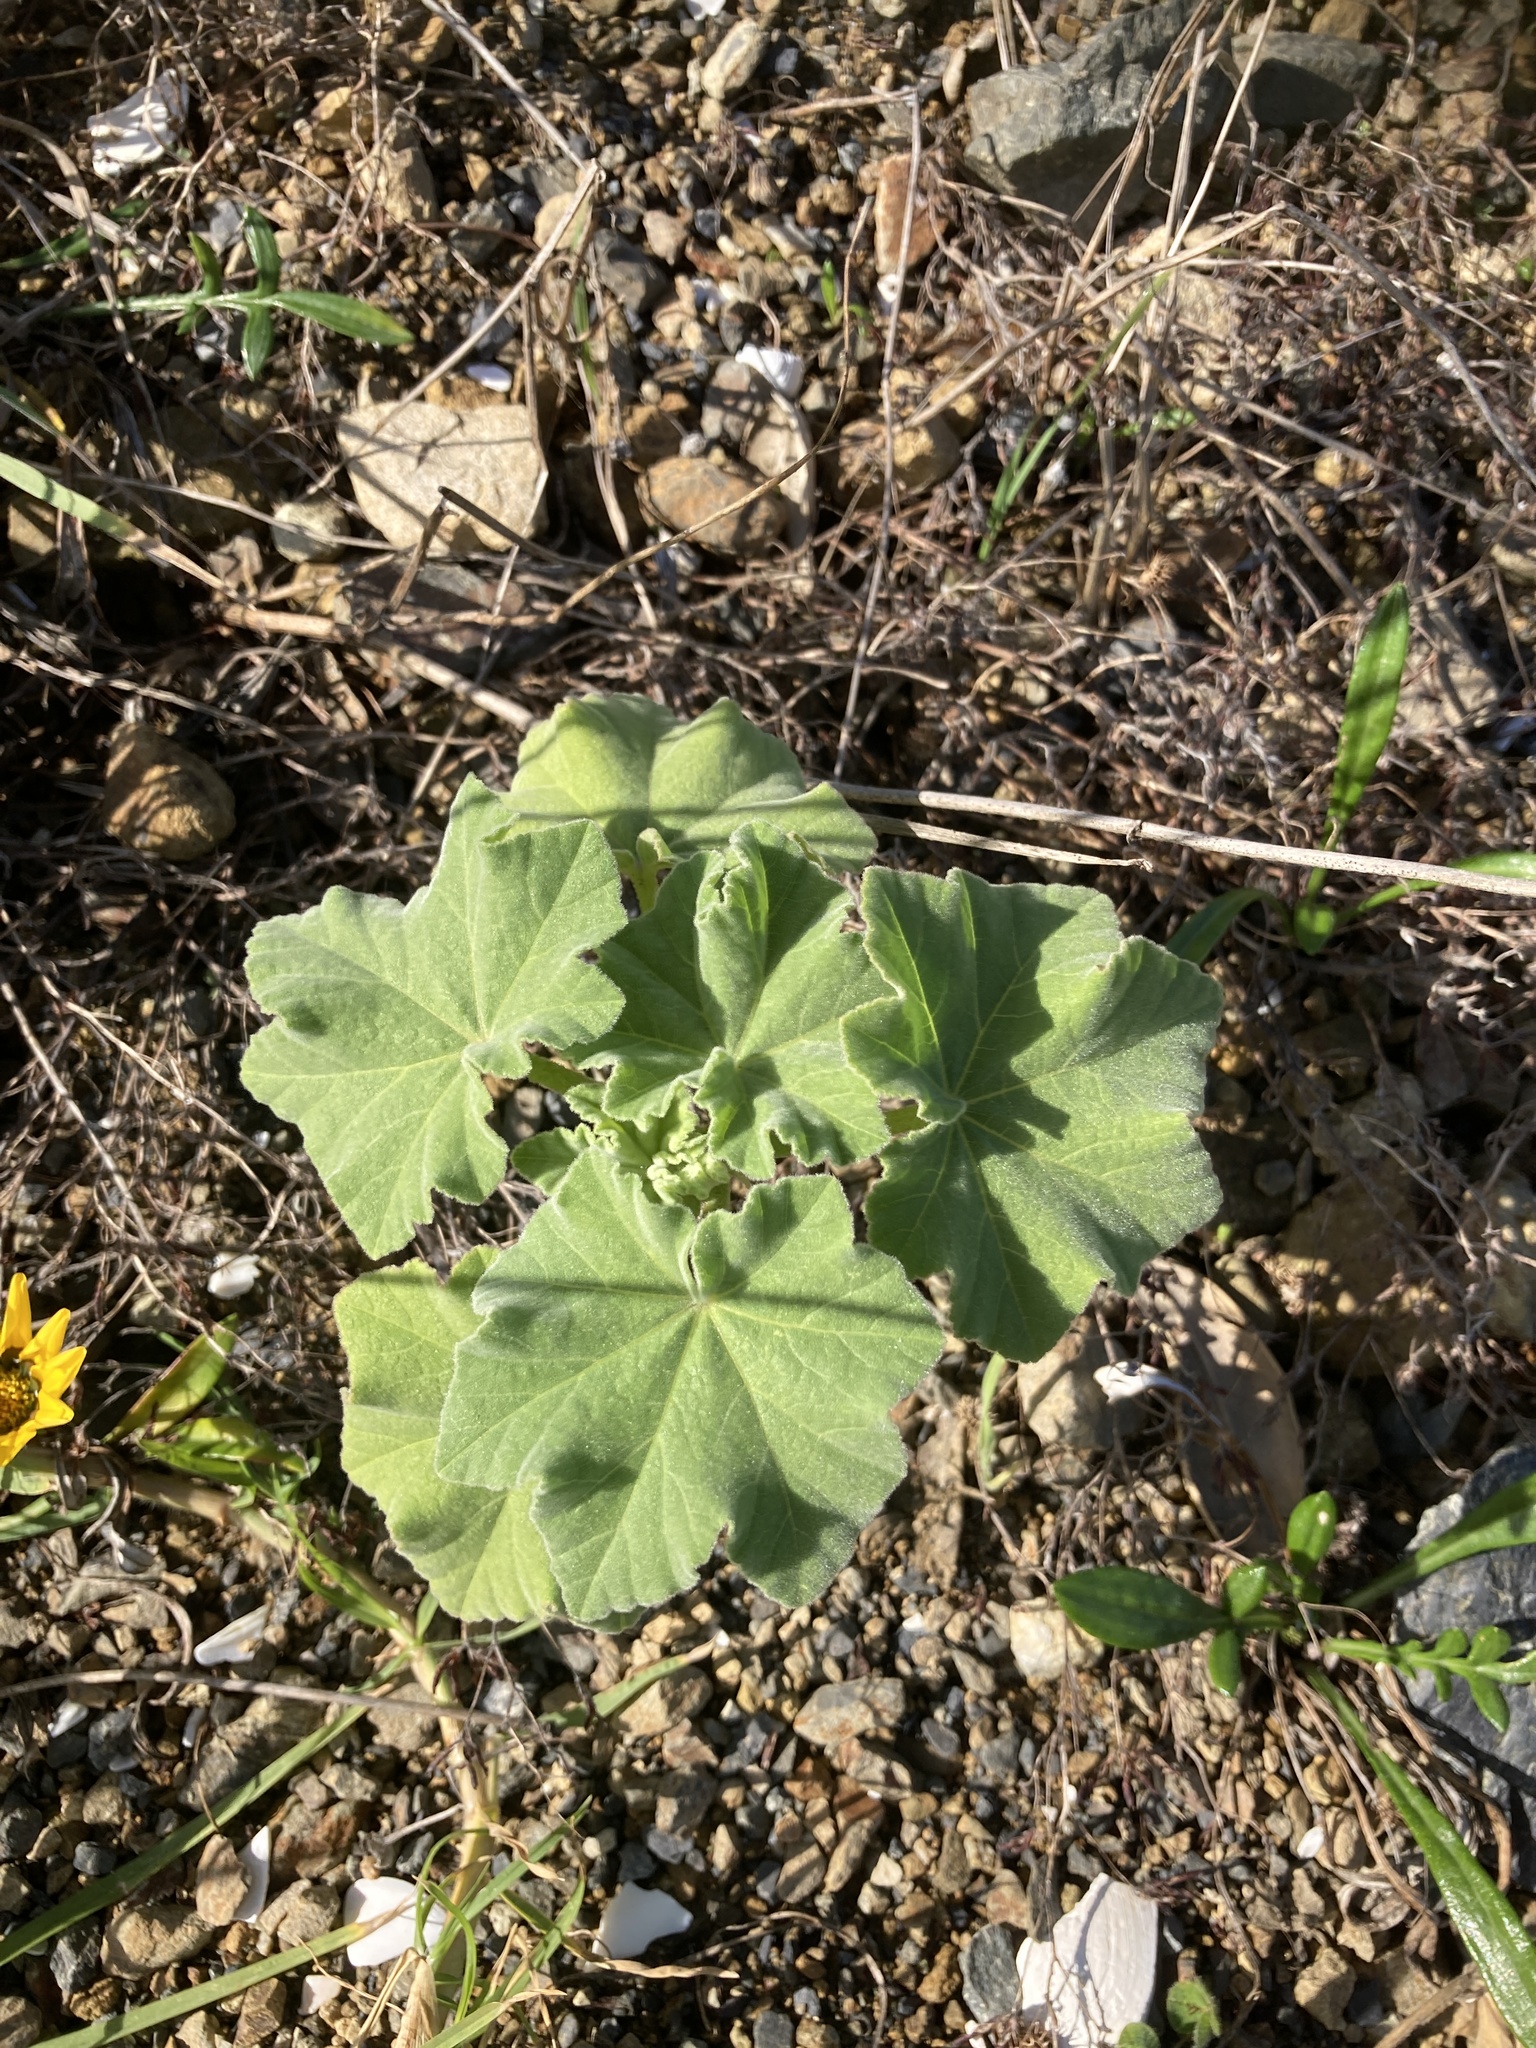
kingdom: Plantae
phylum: Tracheophyta
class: Magnoliopsida
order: Malvales
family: Malvaceae
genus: Malva
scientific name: Malva arborea
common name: Tree mallow
